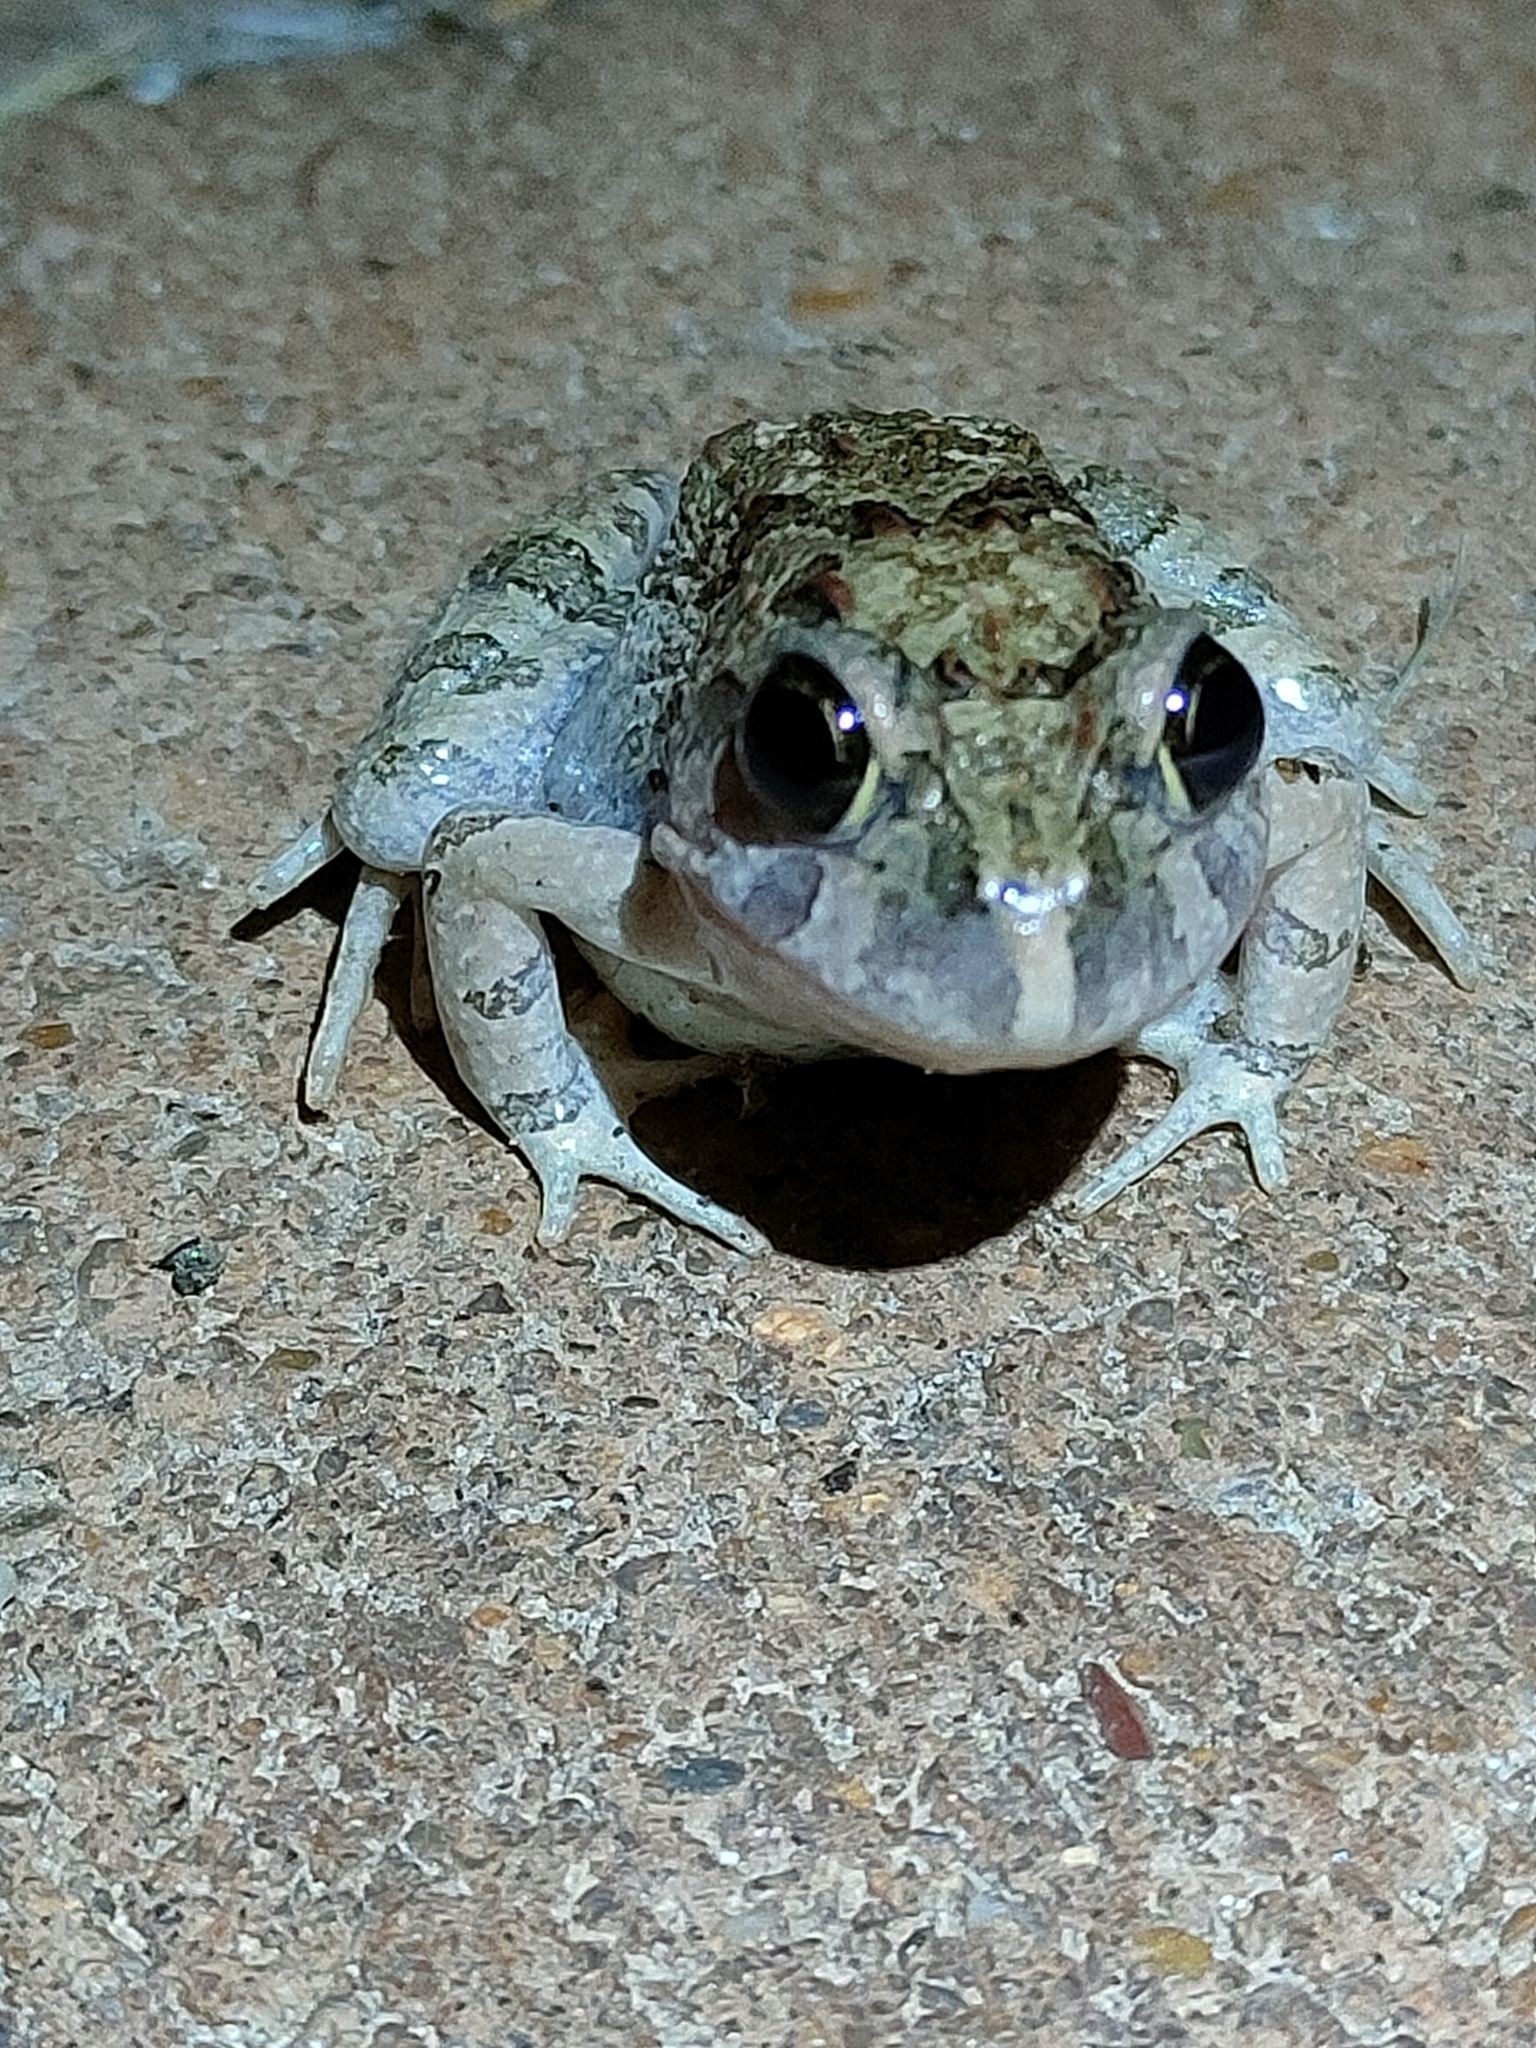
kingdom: Animalia
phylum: Chordata
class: Amphibia
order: Anura
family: Limnodynastidae
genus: Platyplectrum
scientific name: Platyplectrum ornatum
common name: Ornate burrowing frog
